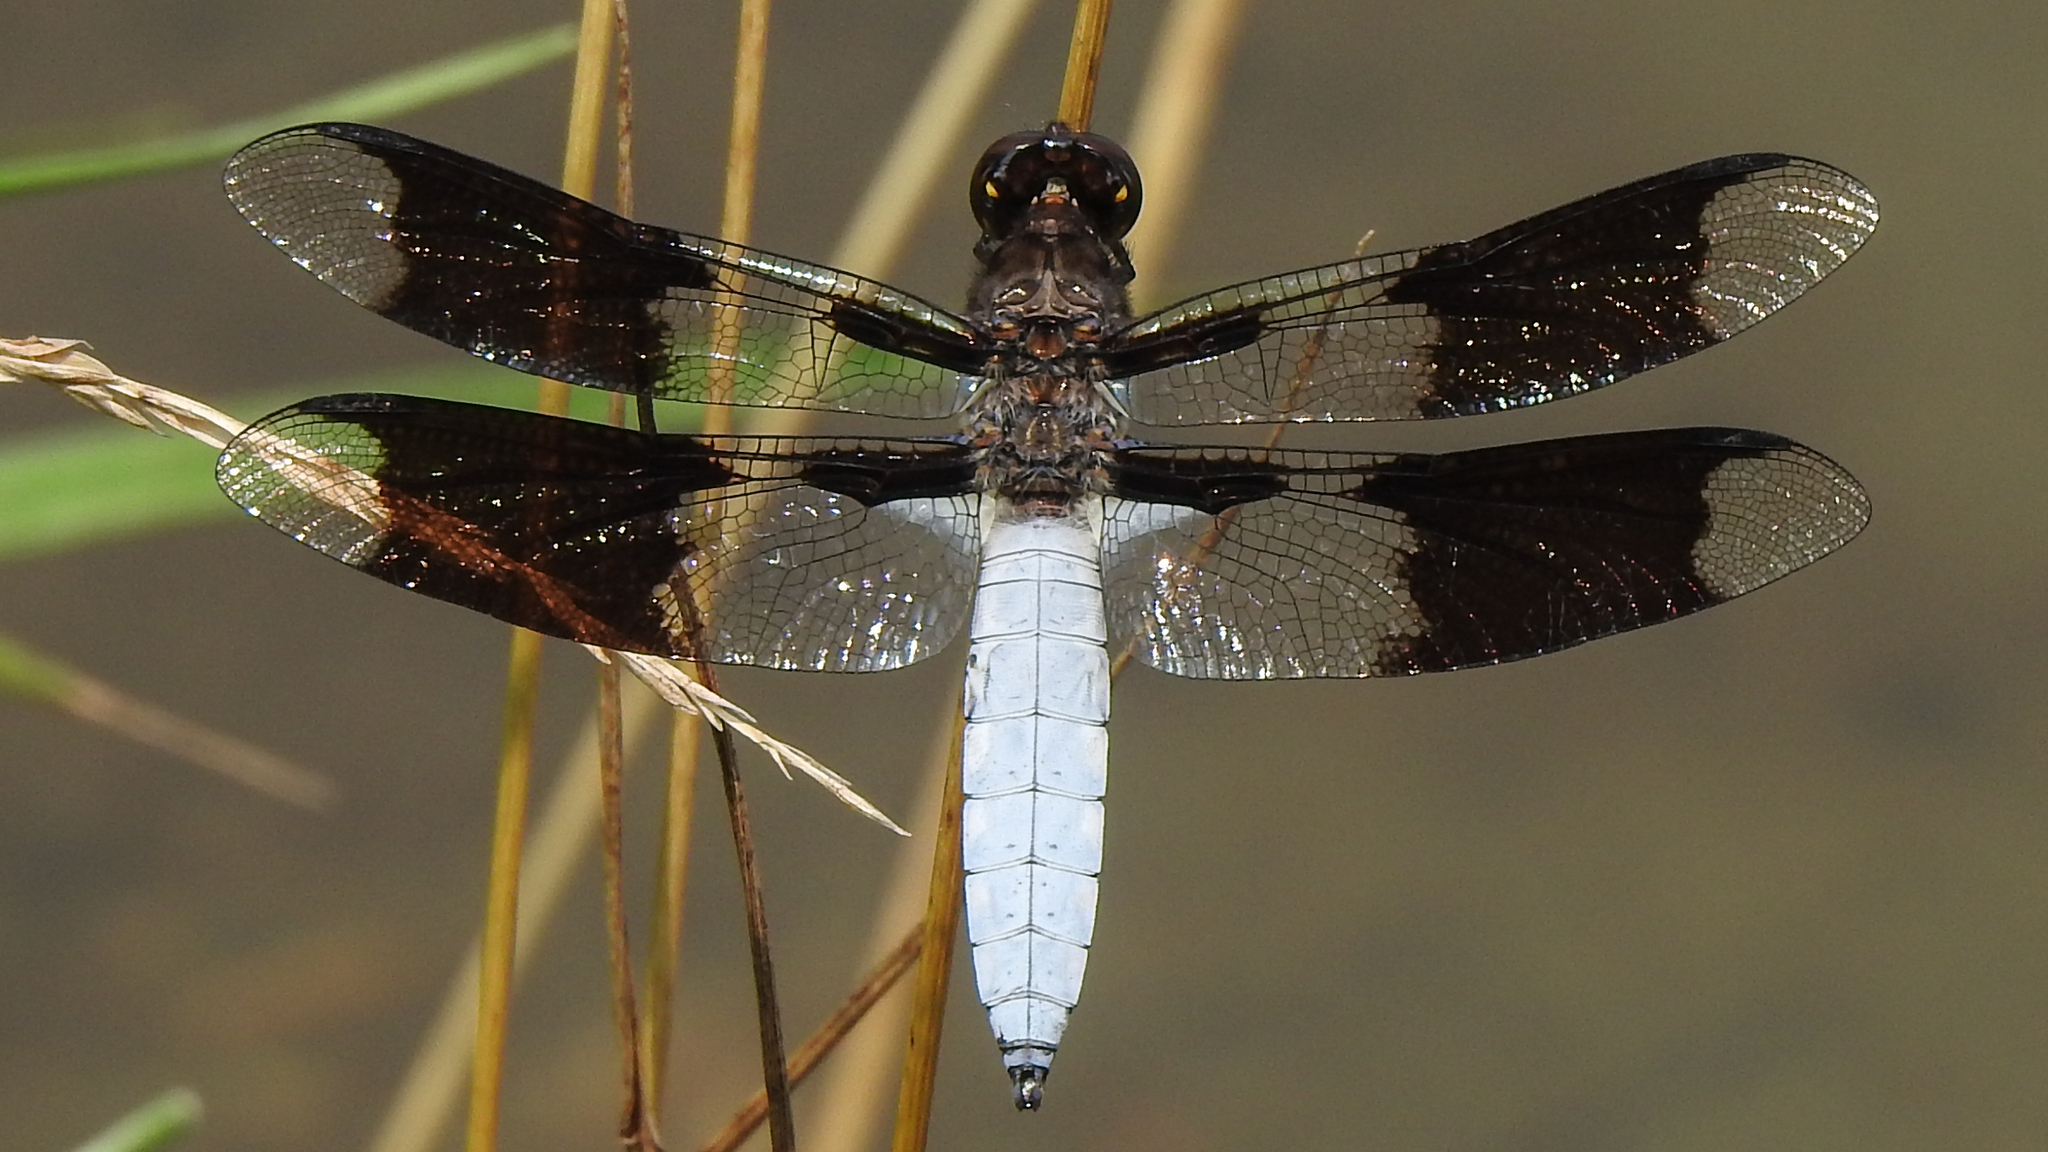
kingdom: Animalia
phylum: Arthropoda
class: Insecta
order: Odonata
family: Libellulidae
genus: Plathemis
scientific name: Plathemis lydia
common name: Common whitetail
